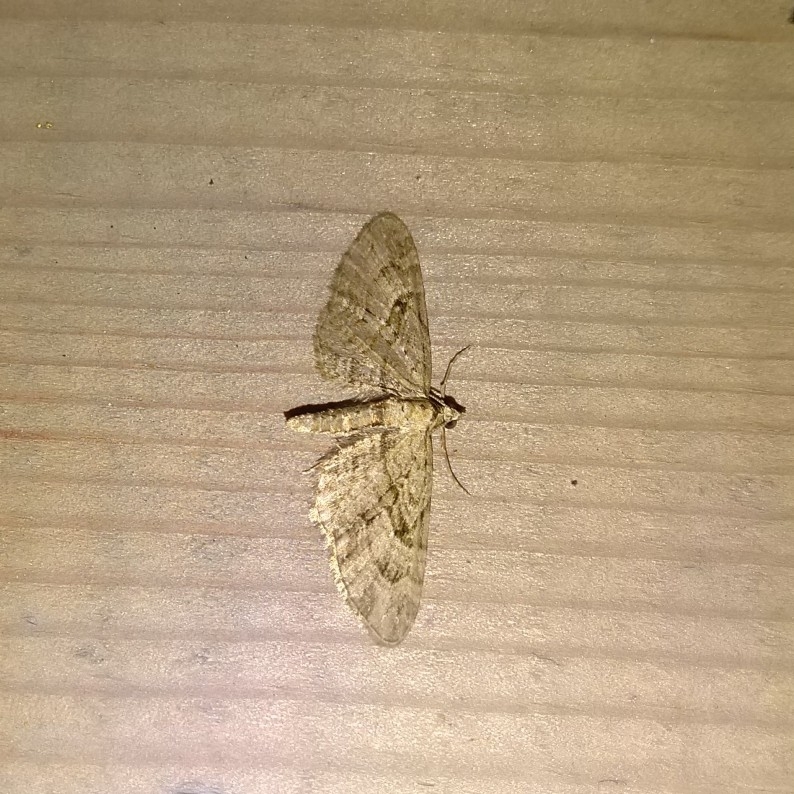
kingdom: Animalia
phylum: Arthropoda
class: Insecta
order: Lepidoptera
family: Geometridae
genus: Eupithecia
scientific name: Eupithecia pusillata
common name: Juniper pug
